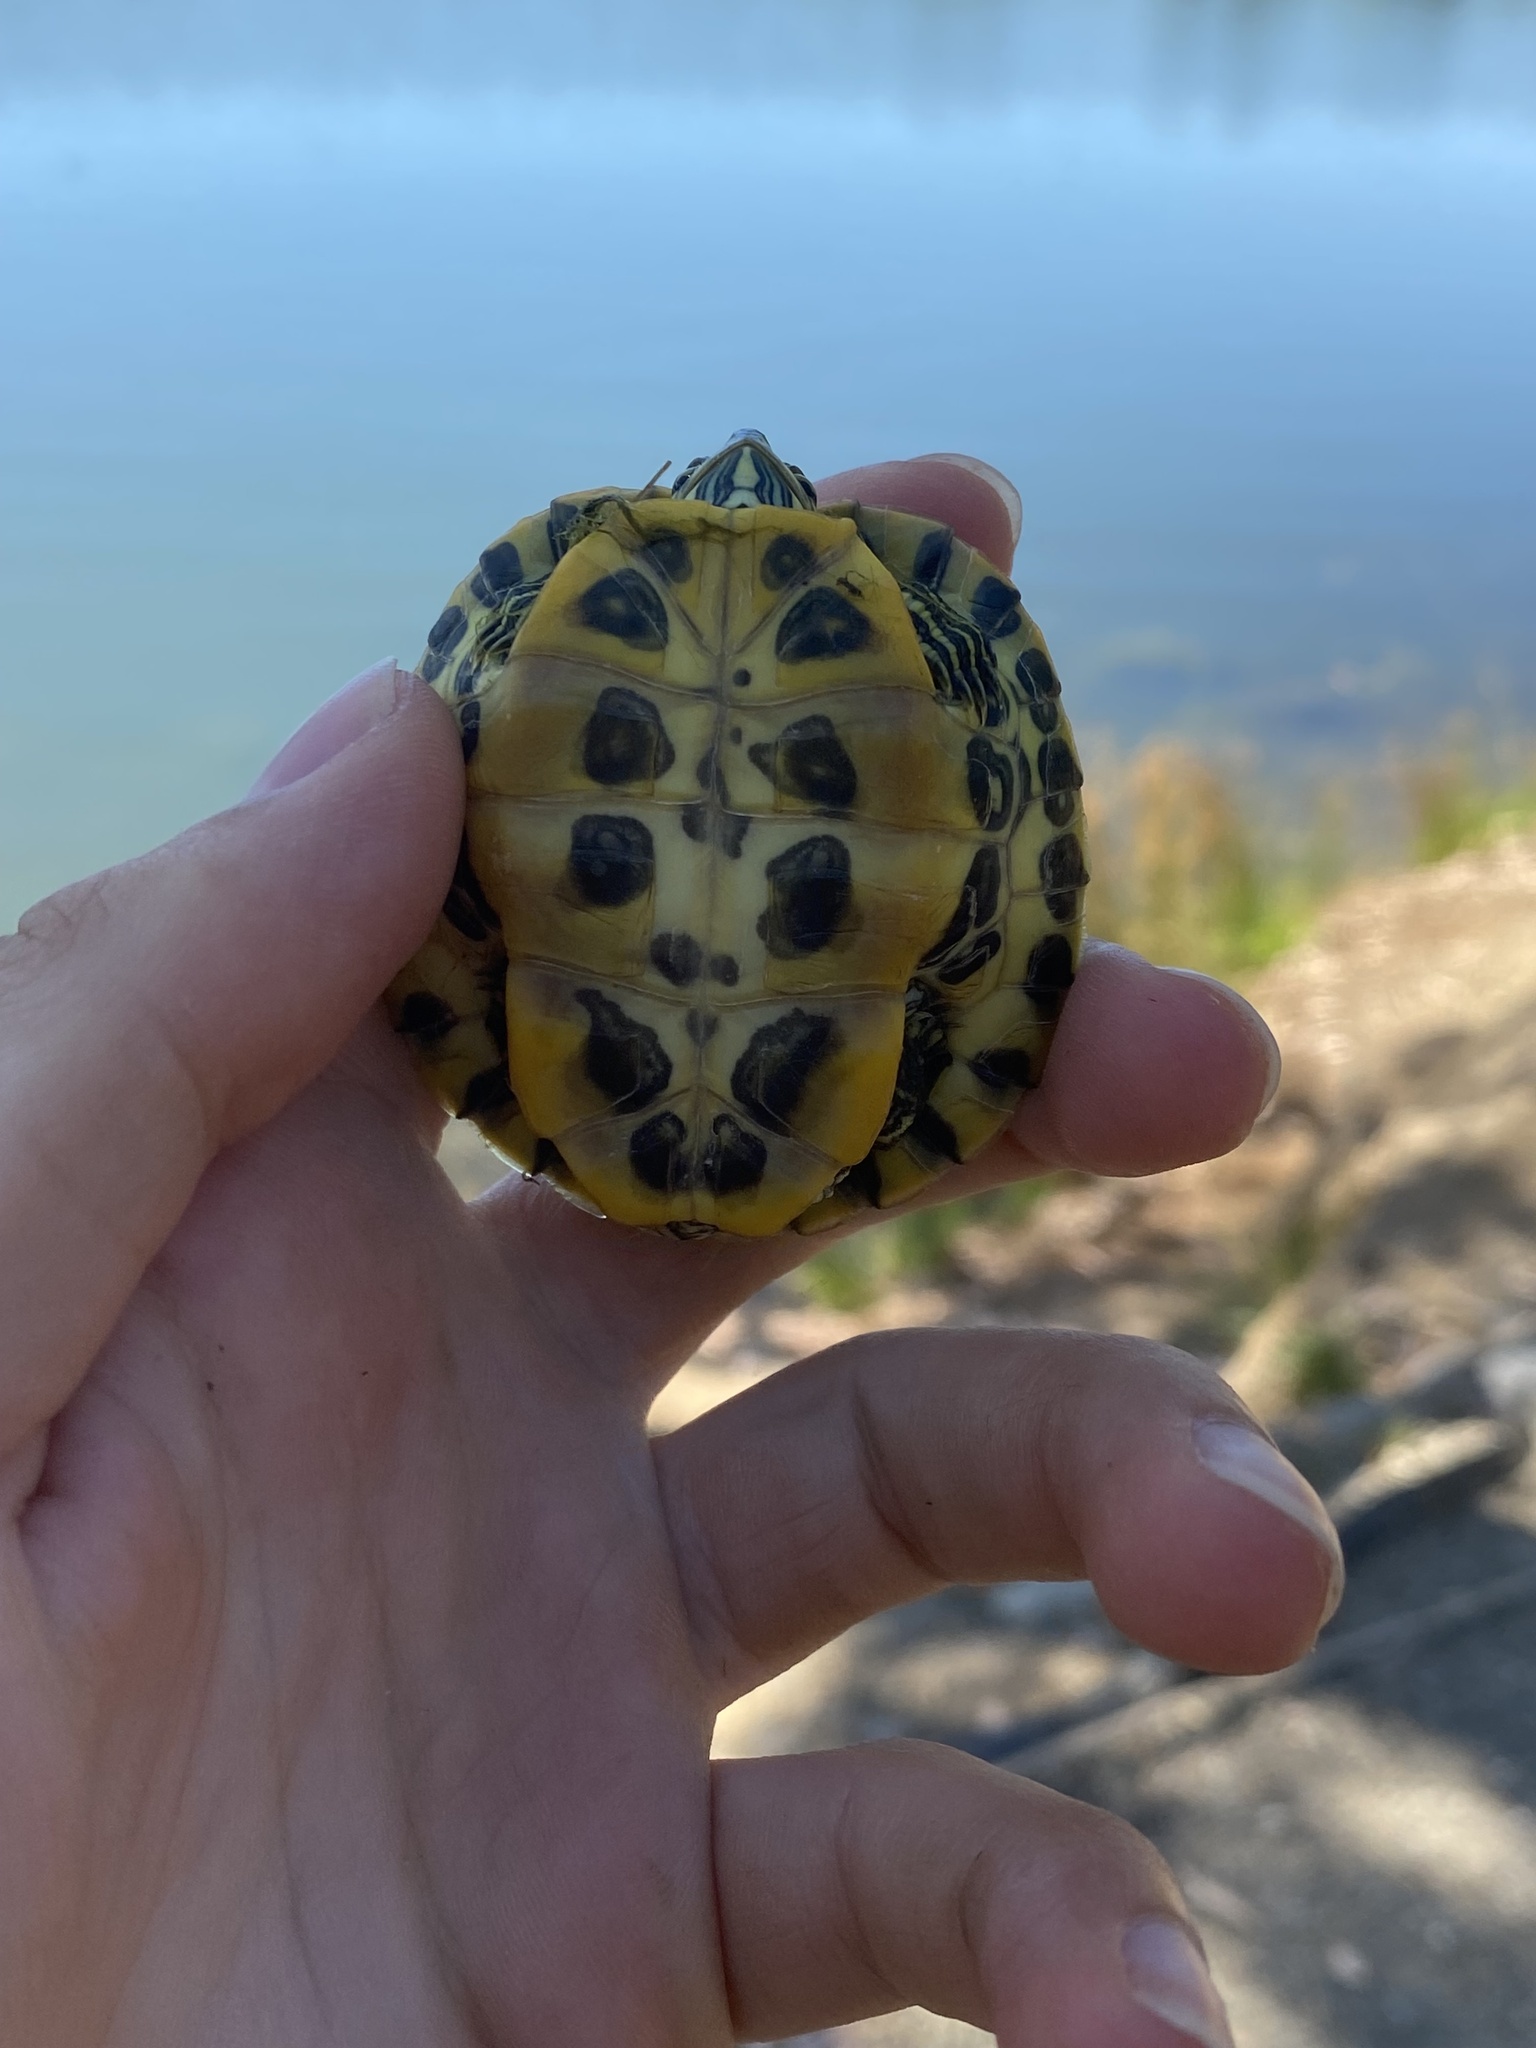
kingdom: Animalia
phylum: Chordata
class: Testudines
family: Emydidae
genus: Trachemys
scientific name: Trachemys scripta
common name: Slider
